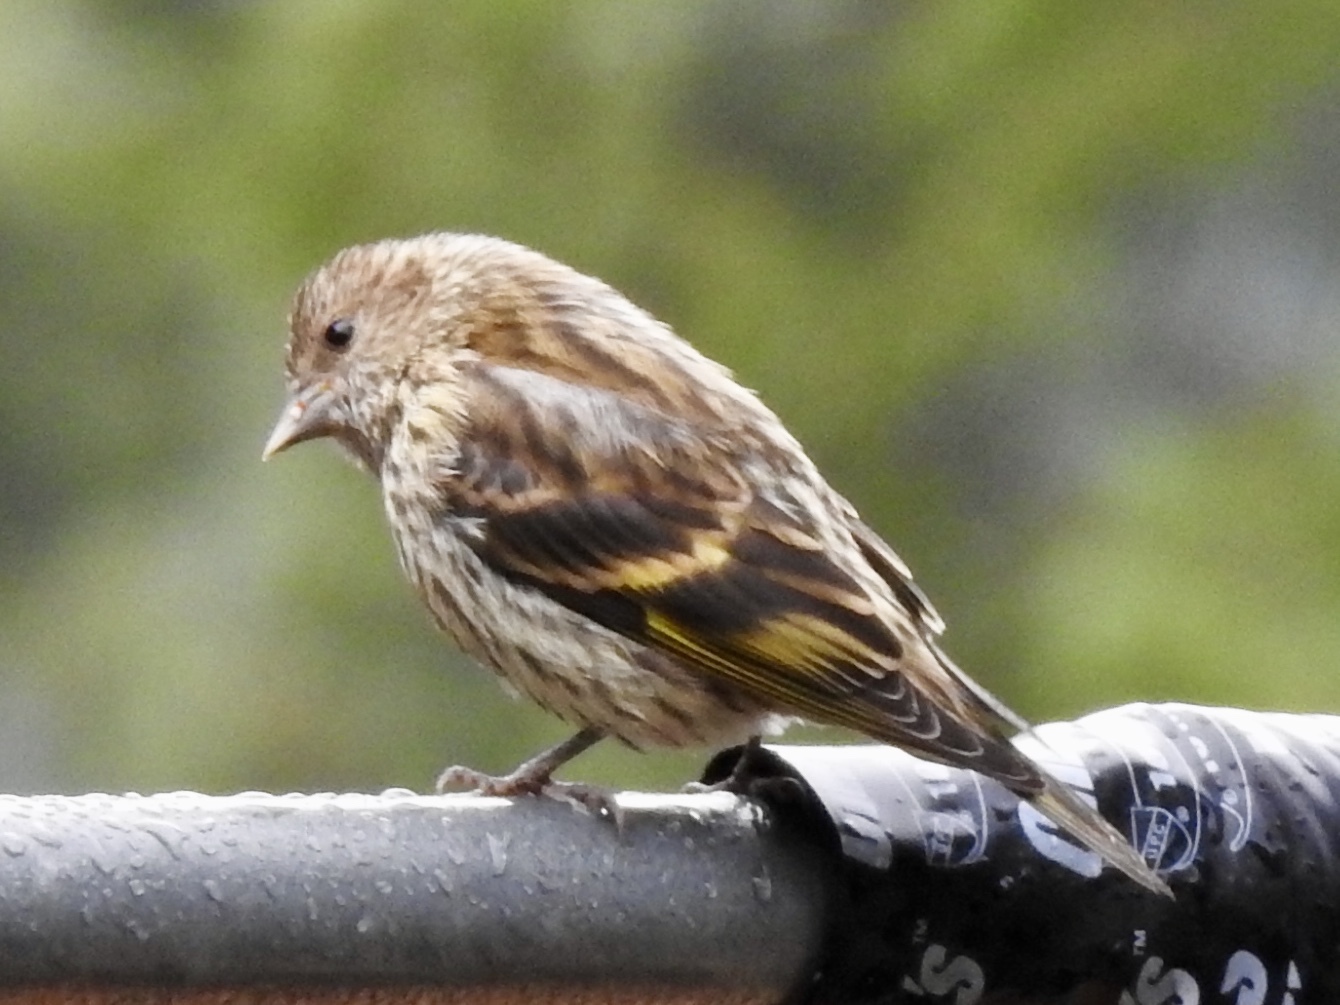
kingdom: Animalia
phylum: Chordata
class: Aves
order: Passeriformes
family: Fringillidae
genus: Spinus
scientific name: Spinus pinus
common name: Pine siskin
